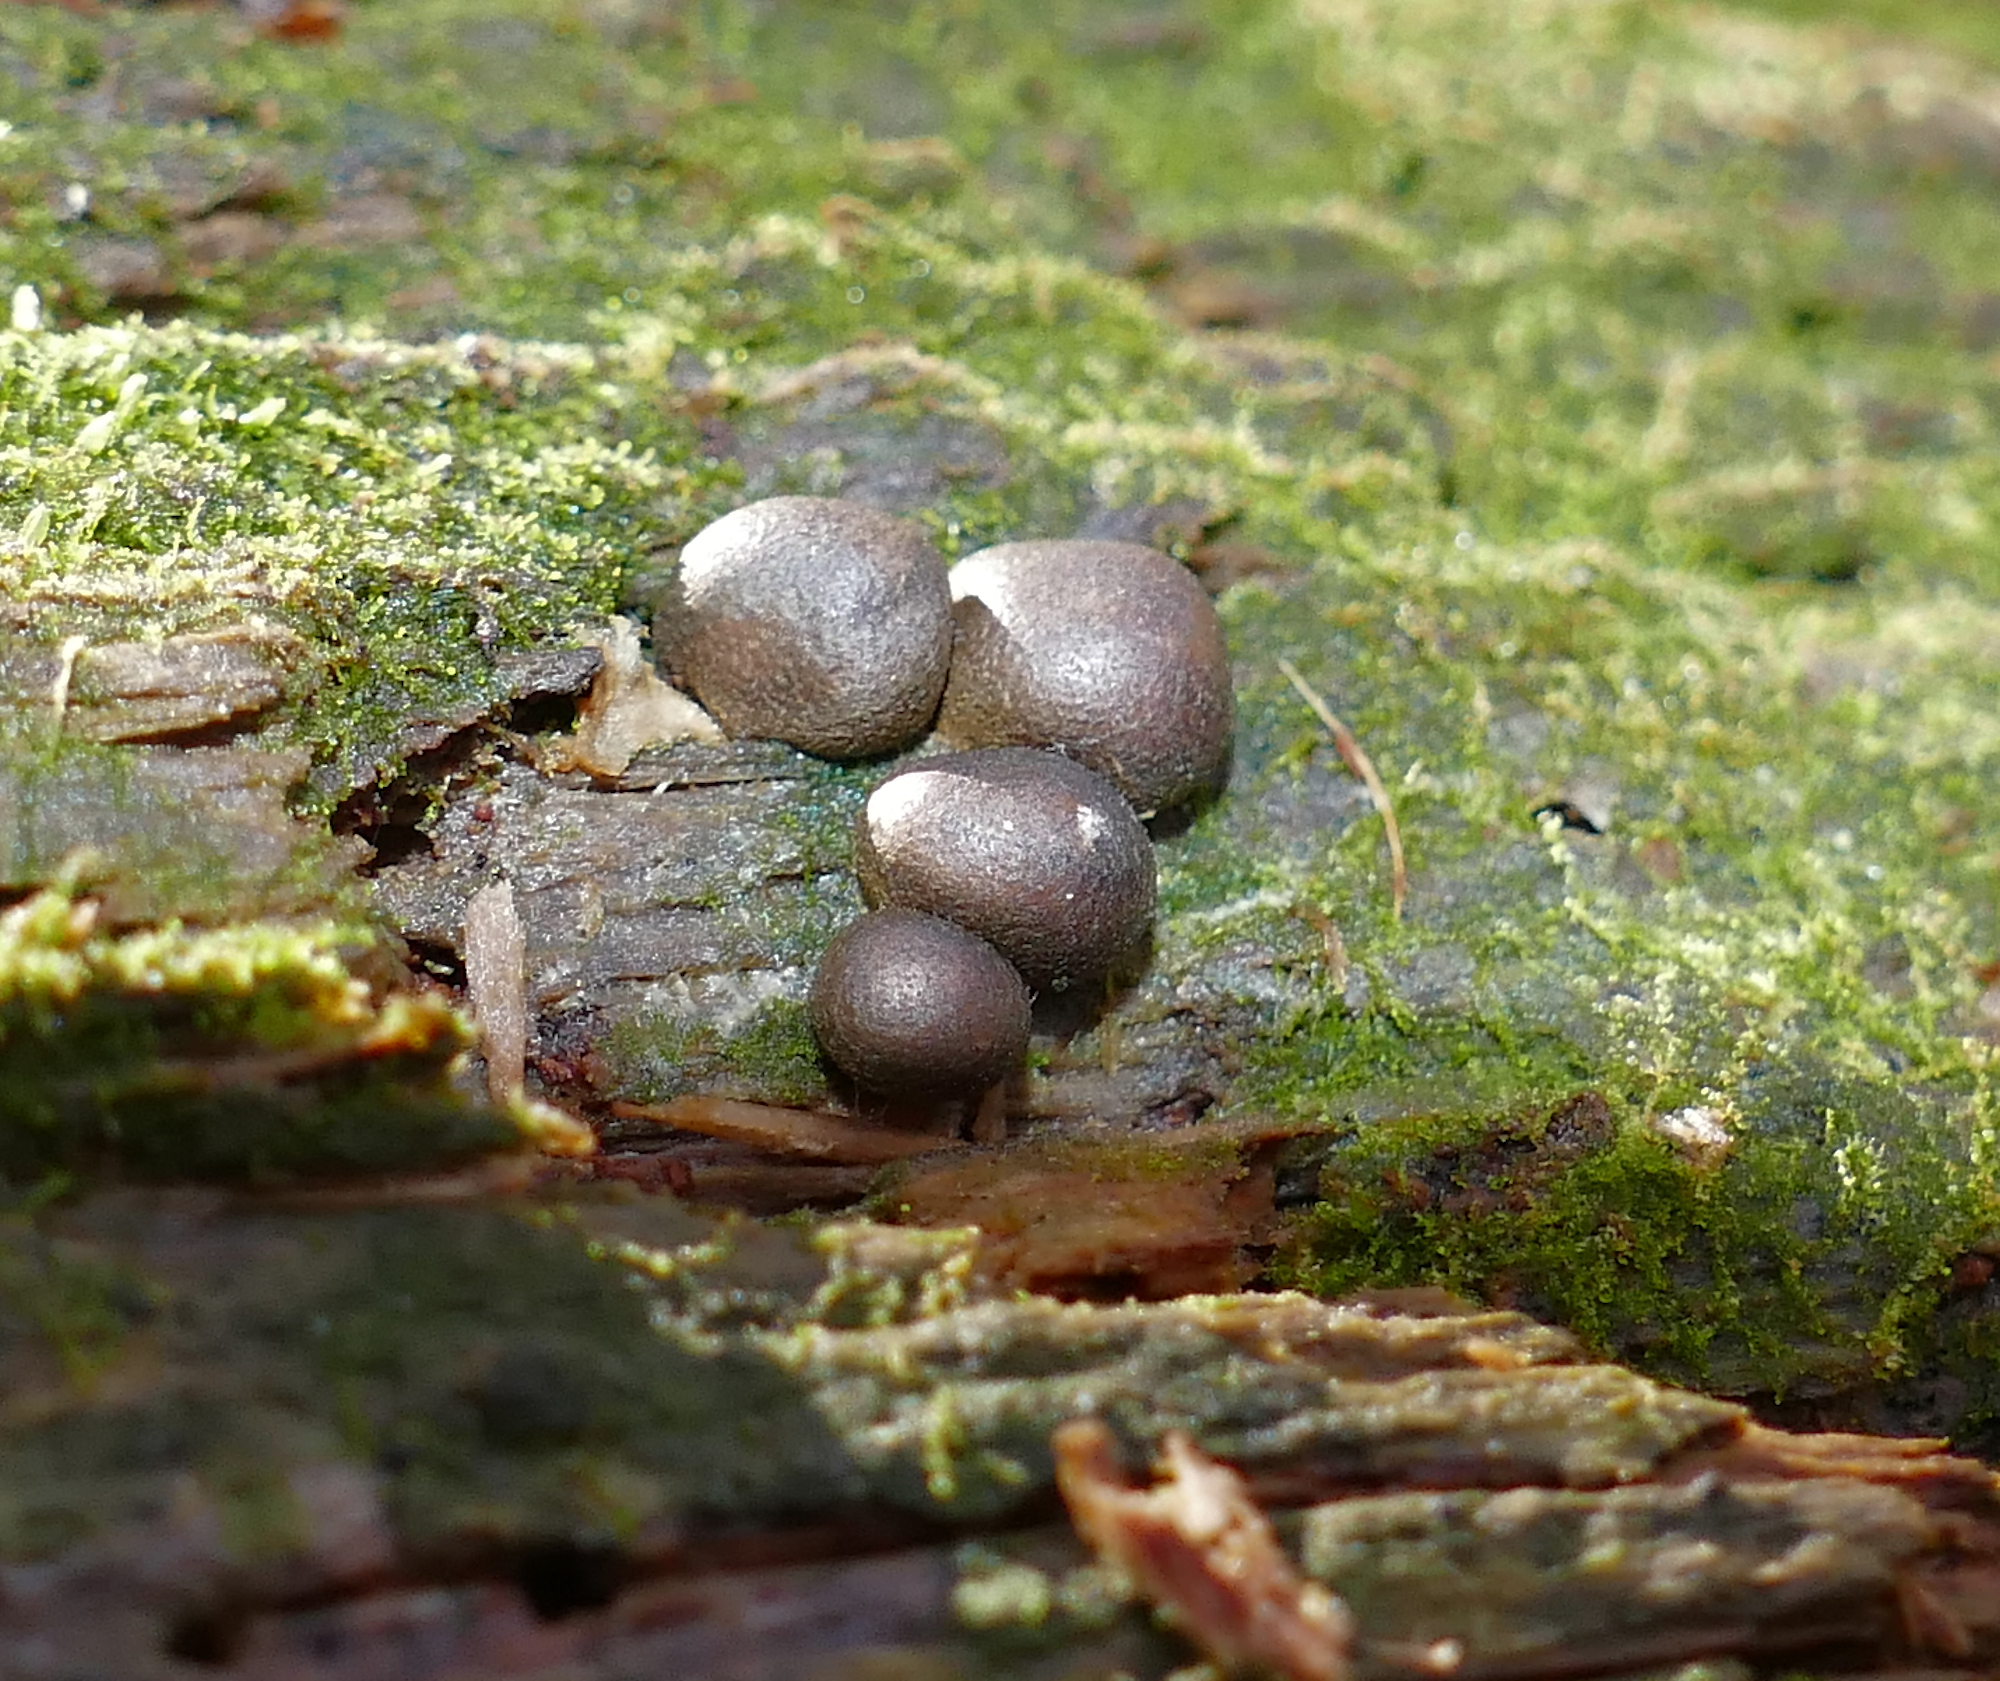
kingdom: Protozoa
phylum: Mycetozoa
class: Myxomycetes
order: Cribrariales
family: Tubiferaceae
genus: Lycogala
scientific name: Lycogala epidendrum
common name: Wolf's milk
